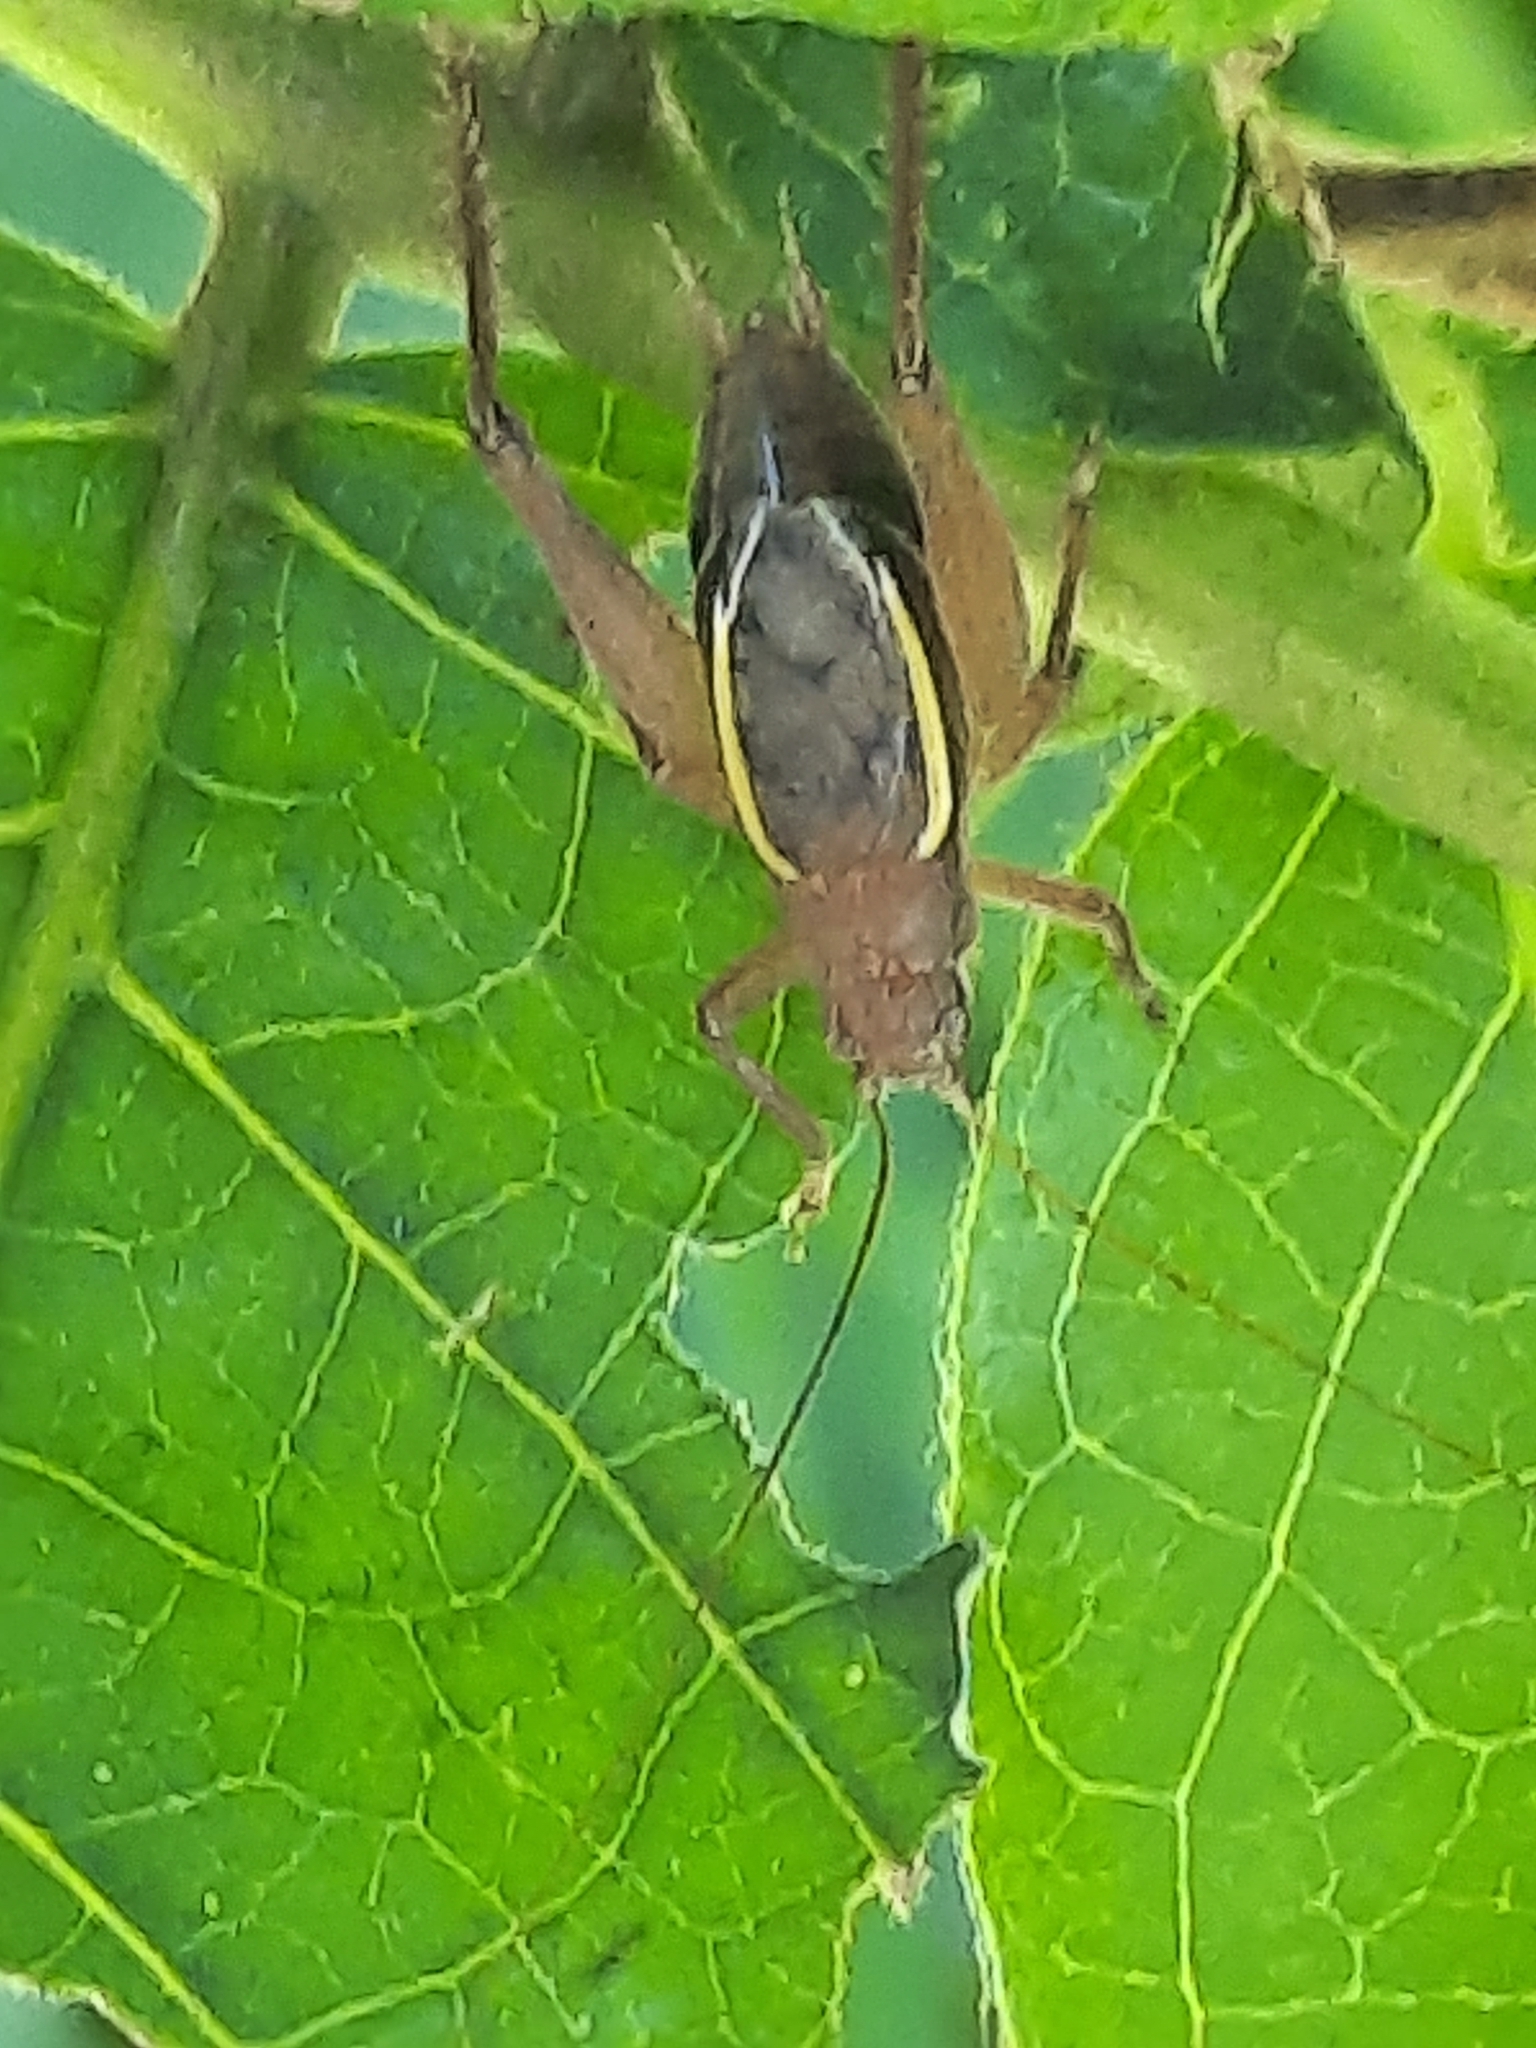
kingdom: Animalia
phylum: Arthropoda
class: Insecta
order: Orthoptera
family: Gryllidae
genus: Hapithus
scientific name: Hapithus agitator
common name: Restless bush cricket
